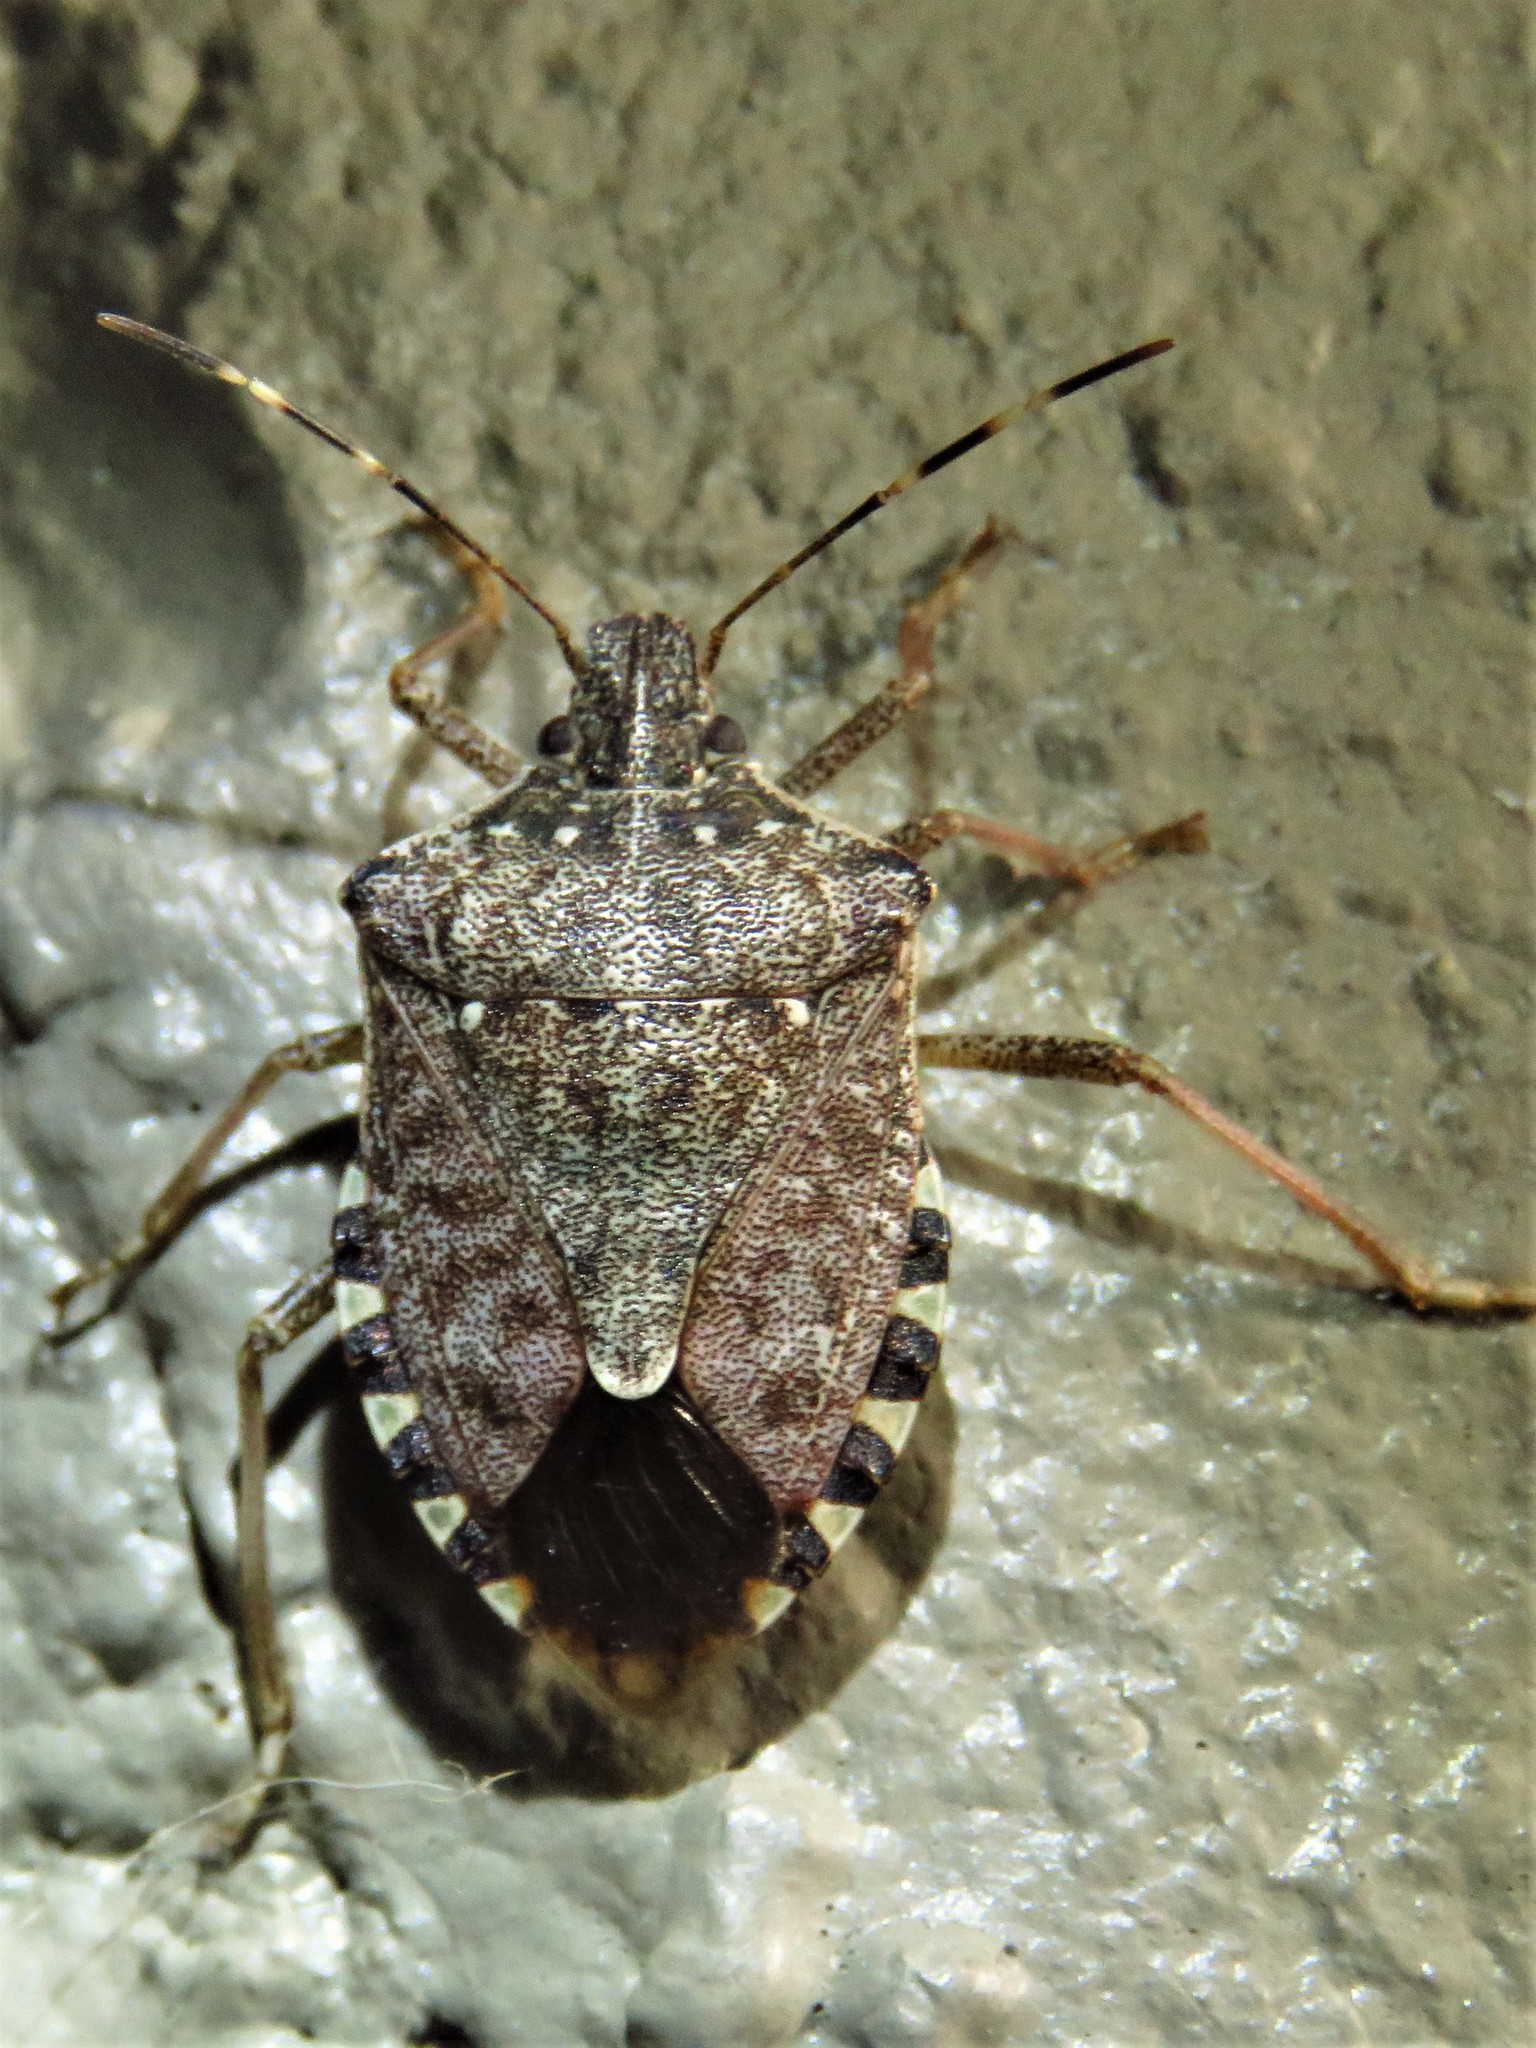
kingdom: Animalia
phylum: Arthropoda
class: Insecta
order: Hemiptera
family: Pentatomidae
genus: Halyomorpha
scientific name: Halyomorpha halys
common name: Brown marmorated stink bug
